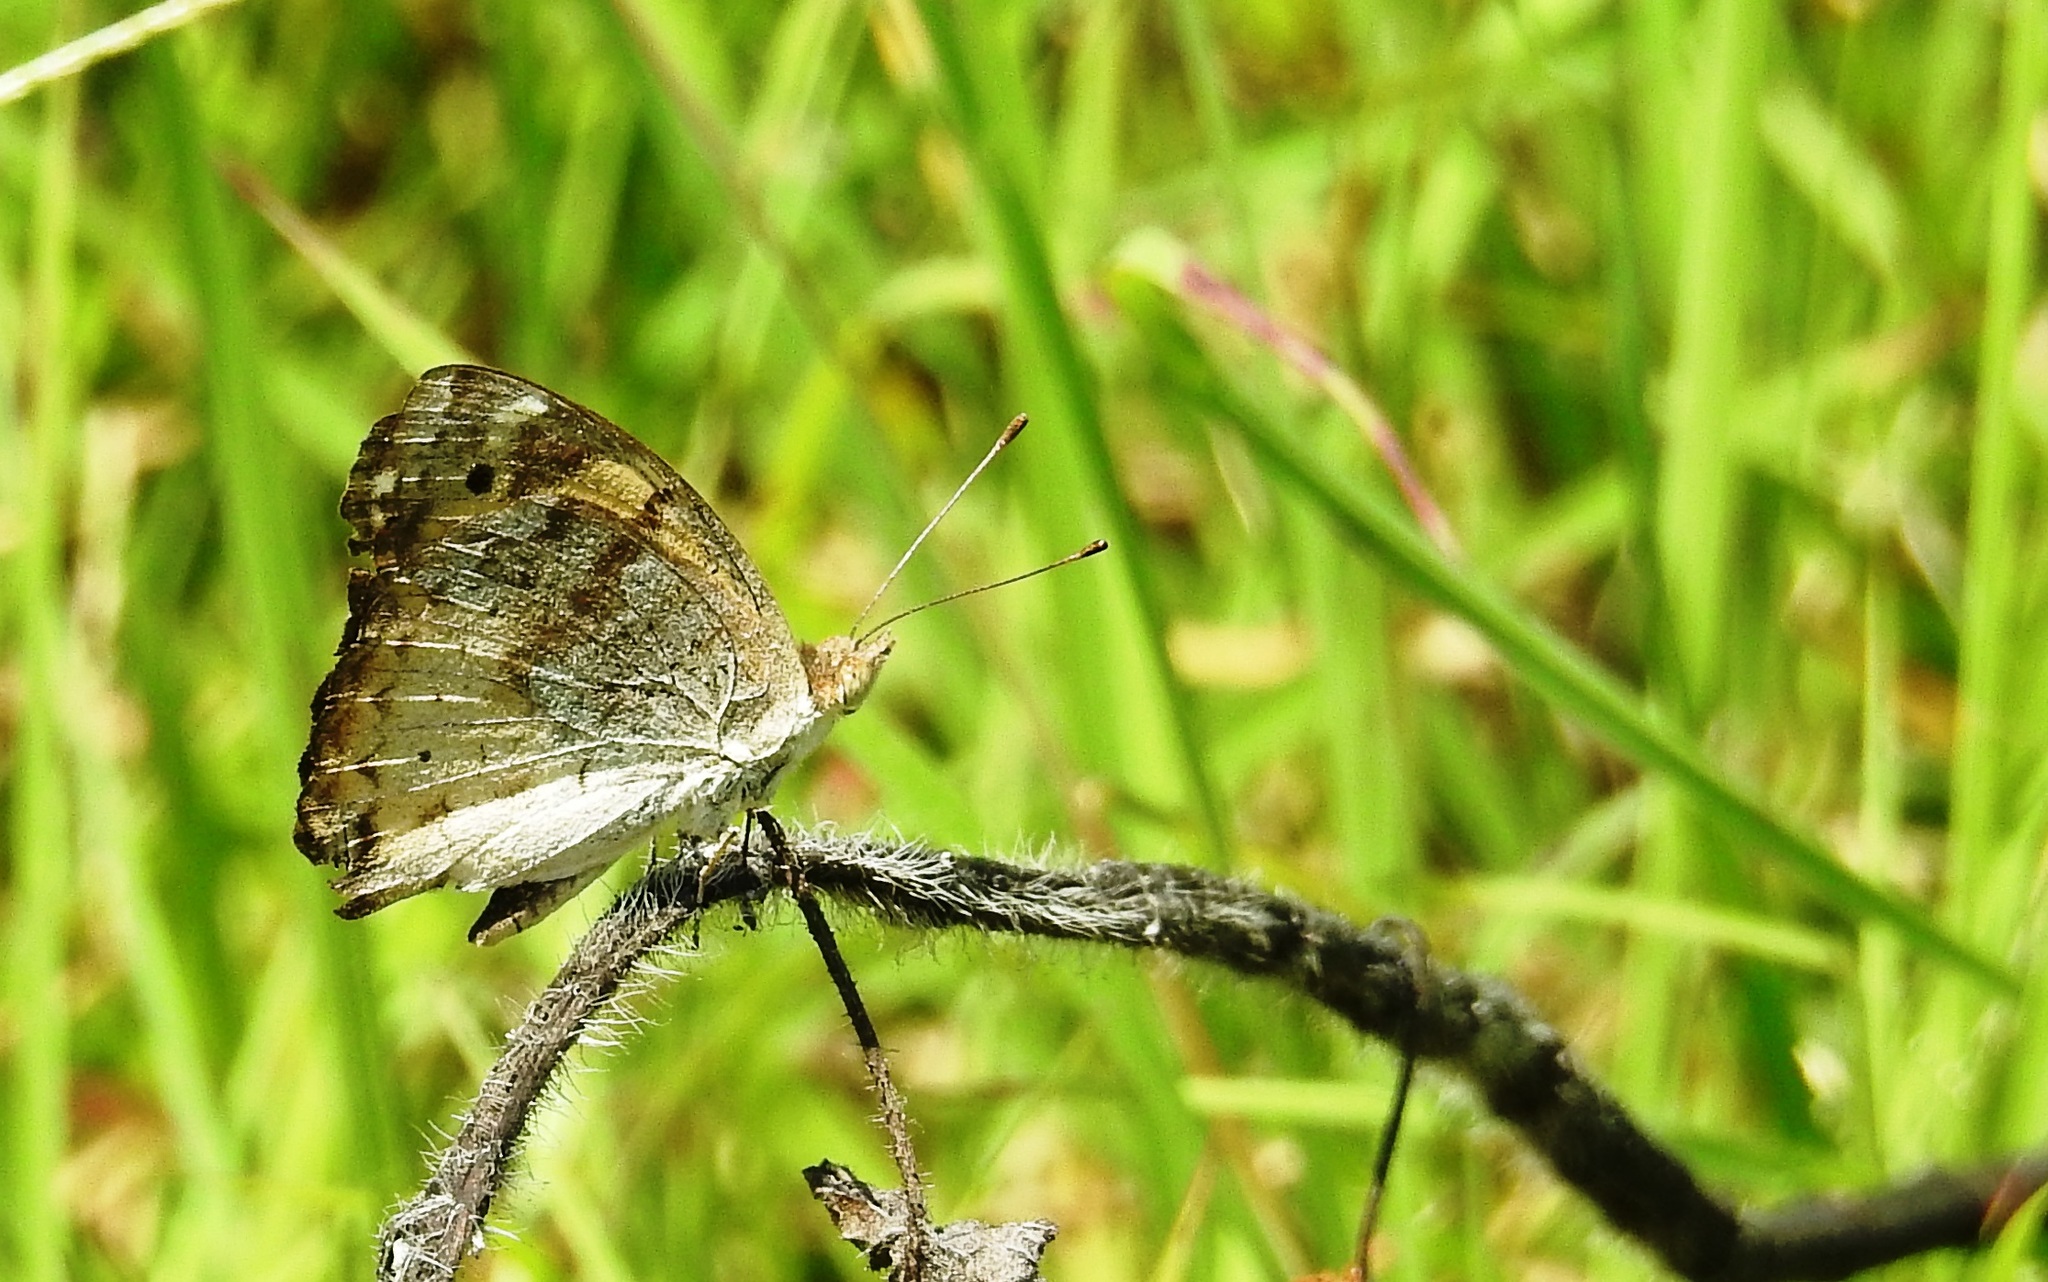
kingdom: Animalia
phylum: Arthropoda
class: Insecta
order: Lepidoptera
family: Nymphalidae
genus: Junonia
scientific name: Junonia hierta
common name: Yellow pansy
